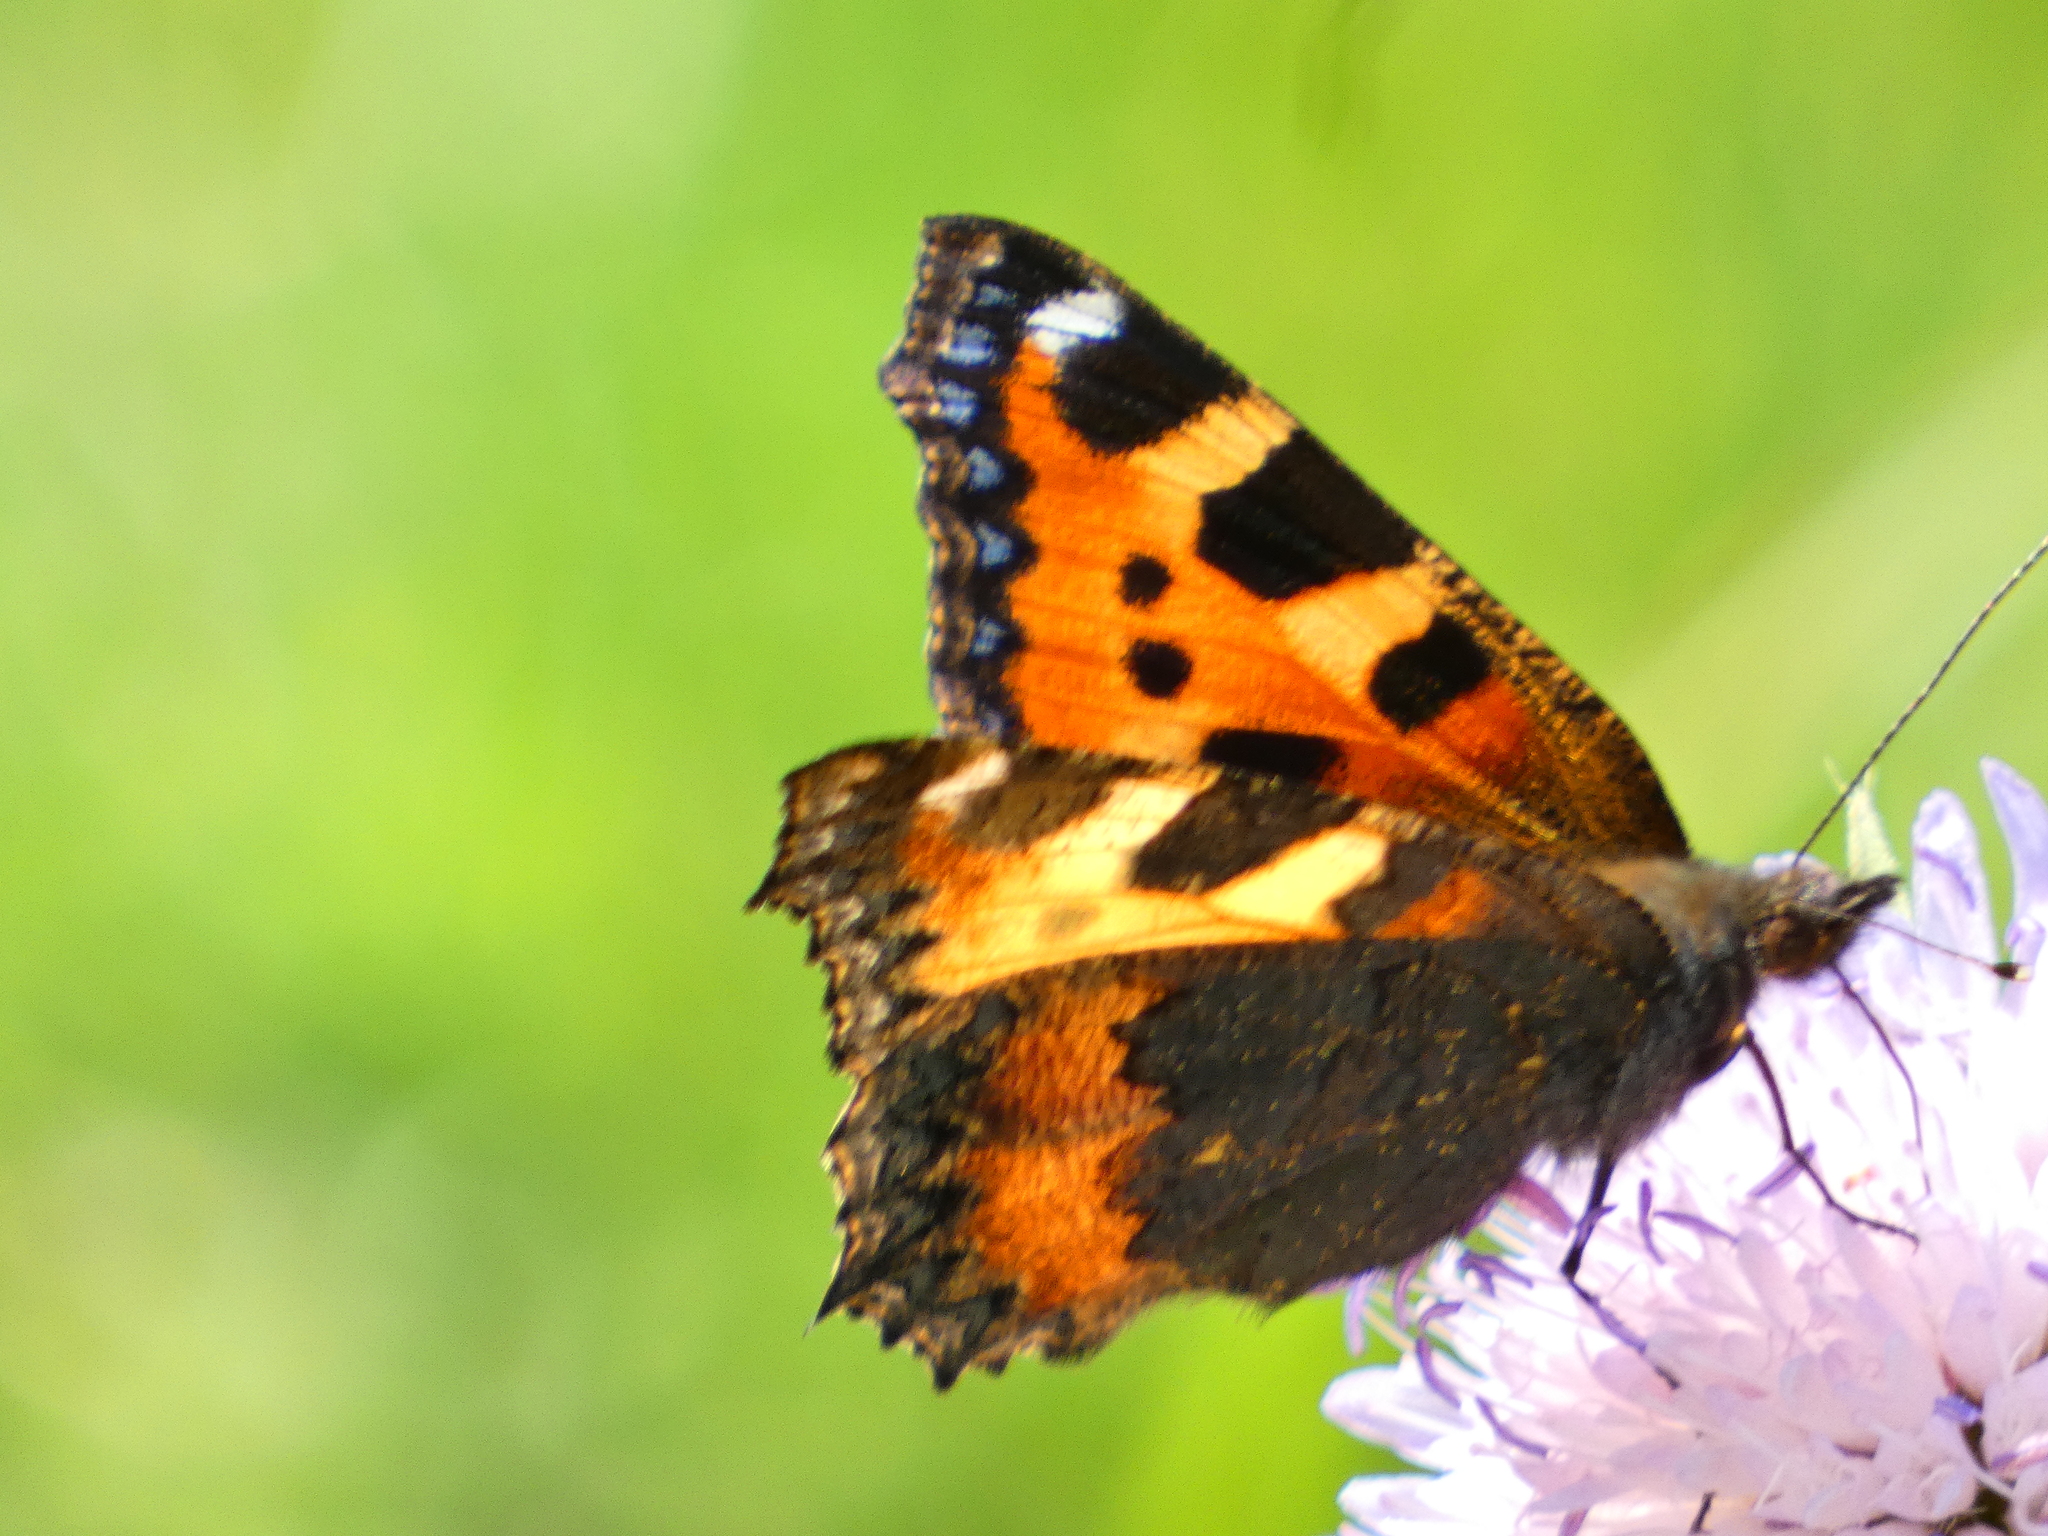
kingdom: Animalia
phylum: Arthropoda
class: Insecta
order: Lepidoptera
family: Nymphalidae
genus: Aglais
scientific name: Aglais urticae
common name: Small tortoiseshell
